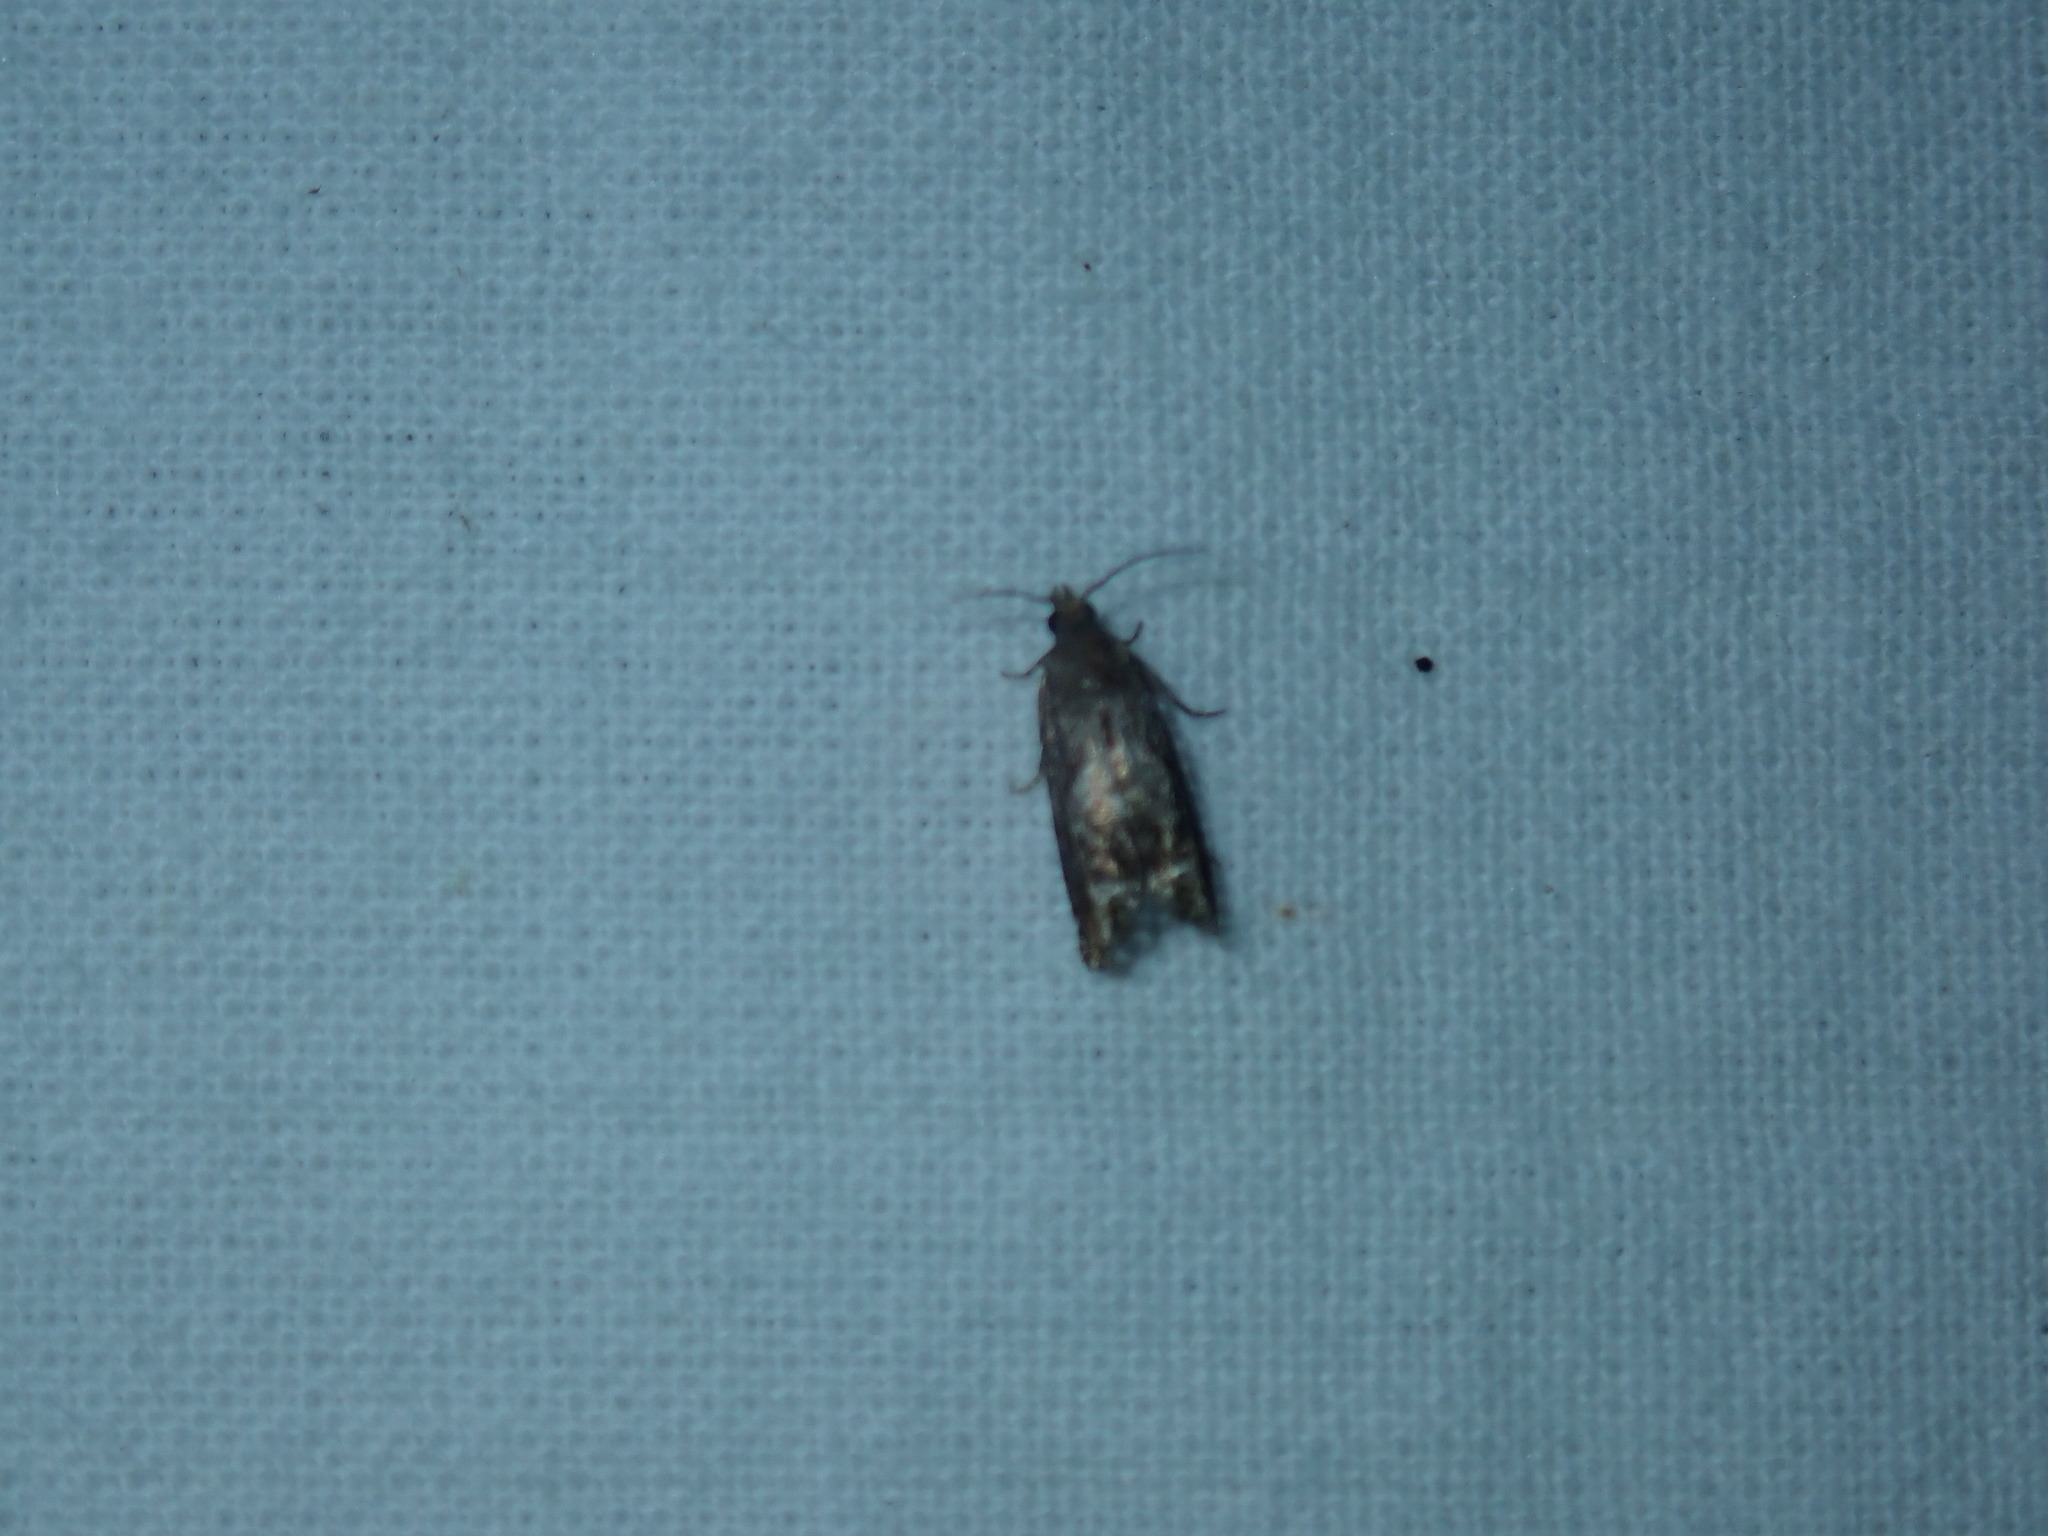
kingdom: Animalia
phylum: Arthropoda
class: Insecta
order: Lepidoptera
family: Tortricidae
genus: Eucosma
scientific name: Eucosma parmatana
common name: Aster eucosma moth
